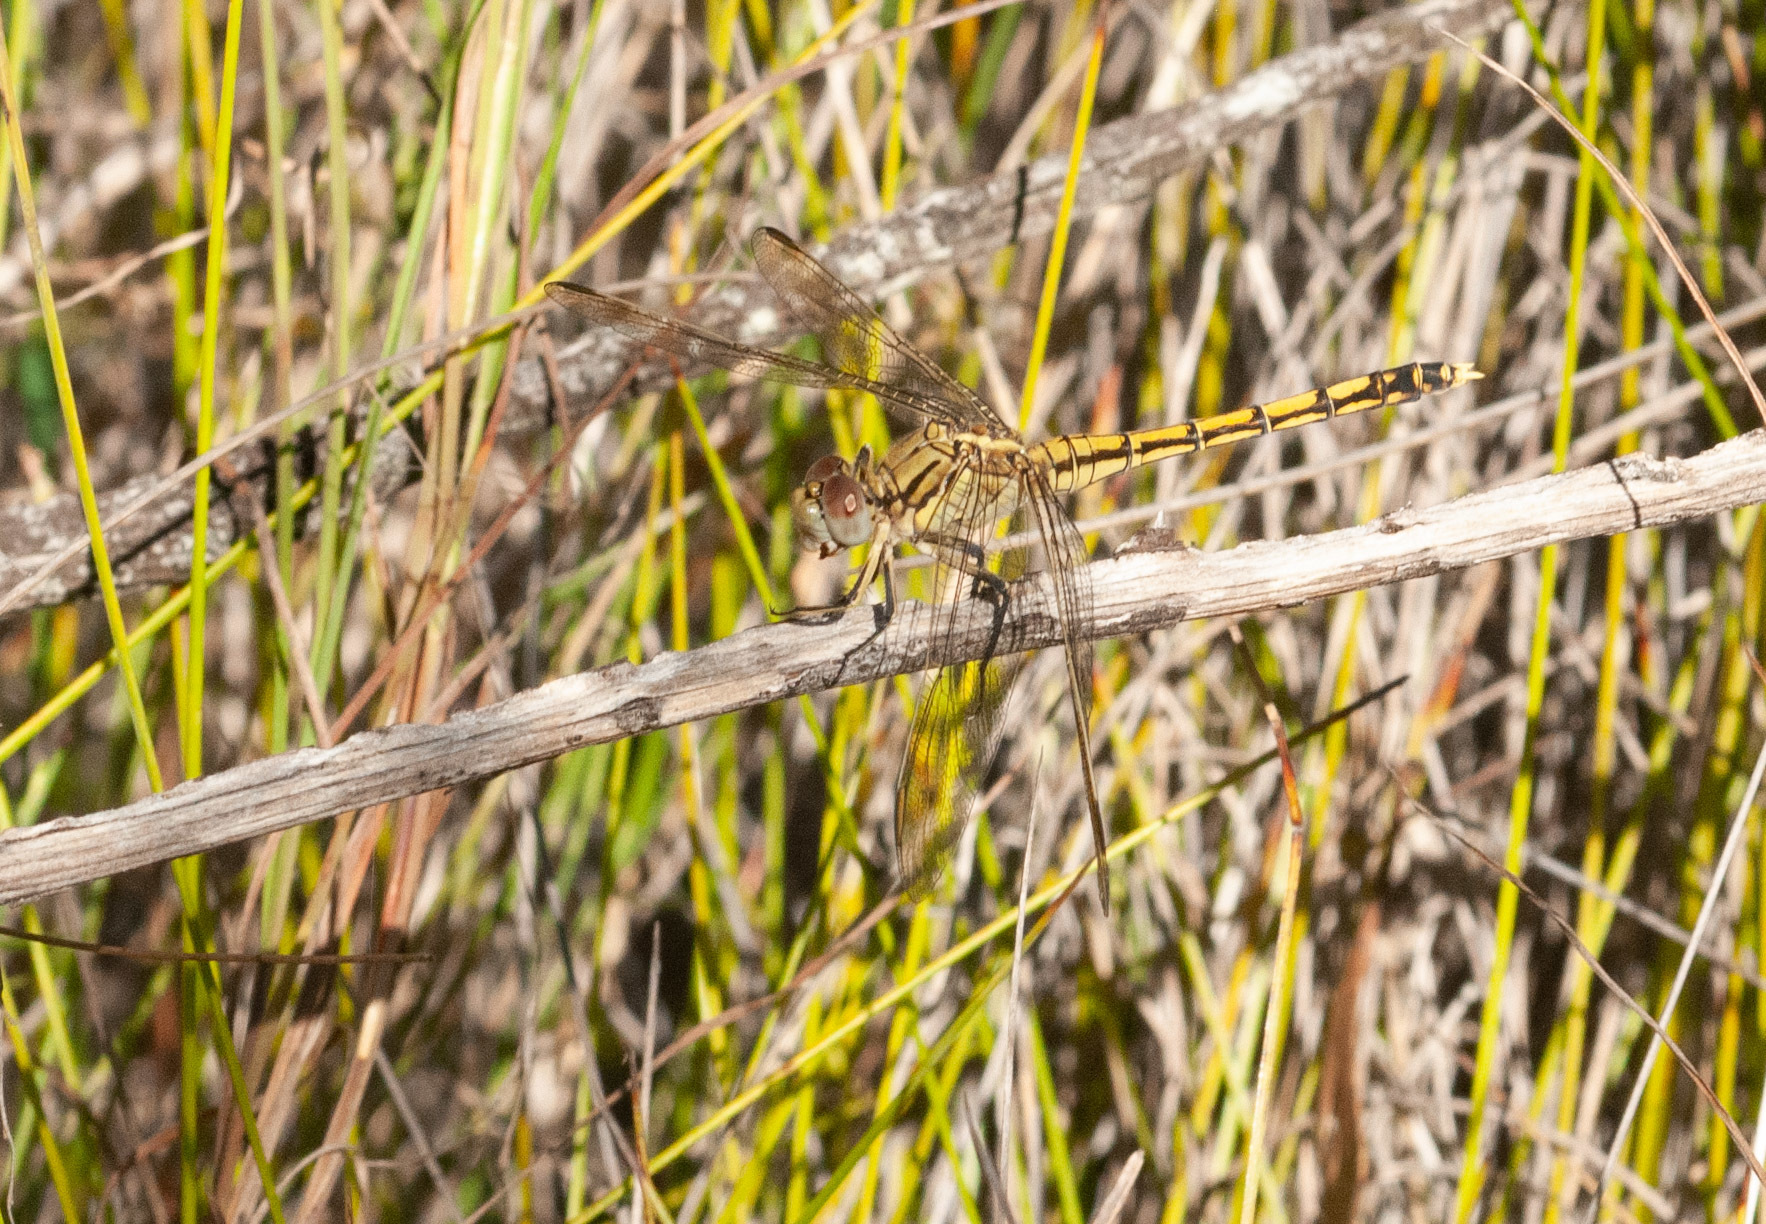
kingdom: Animalia
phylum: Arthropoda
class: Insecta
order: Odonata
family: Libellulidae
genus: Orthetrum
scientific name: Orthetrum caledonicum
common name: Blue skimmer
